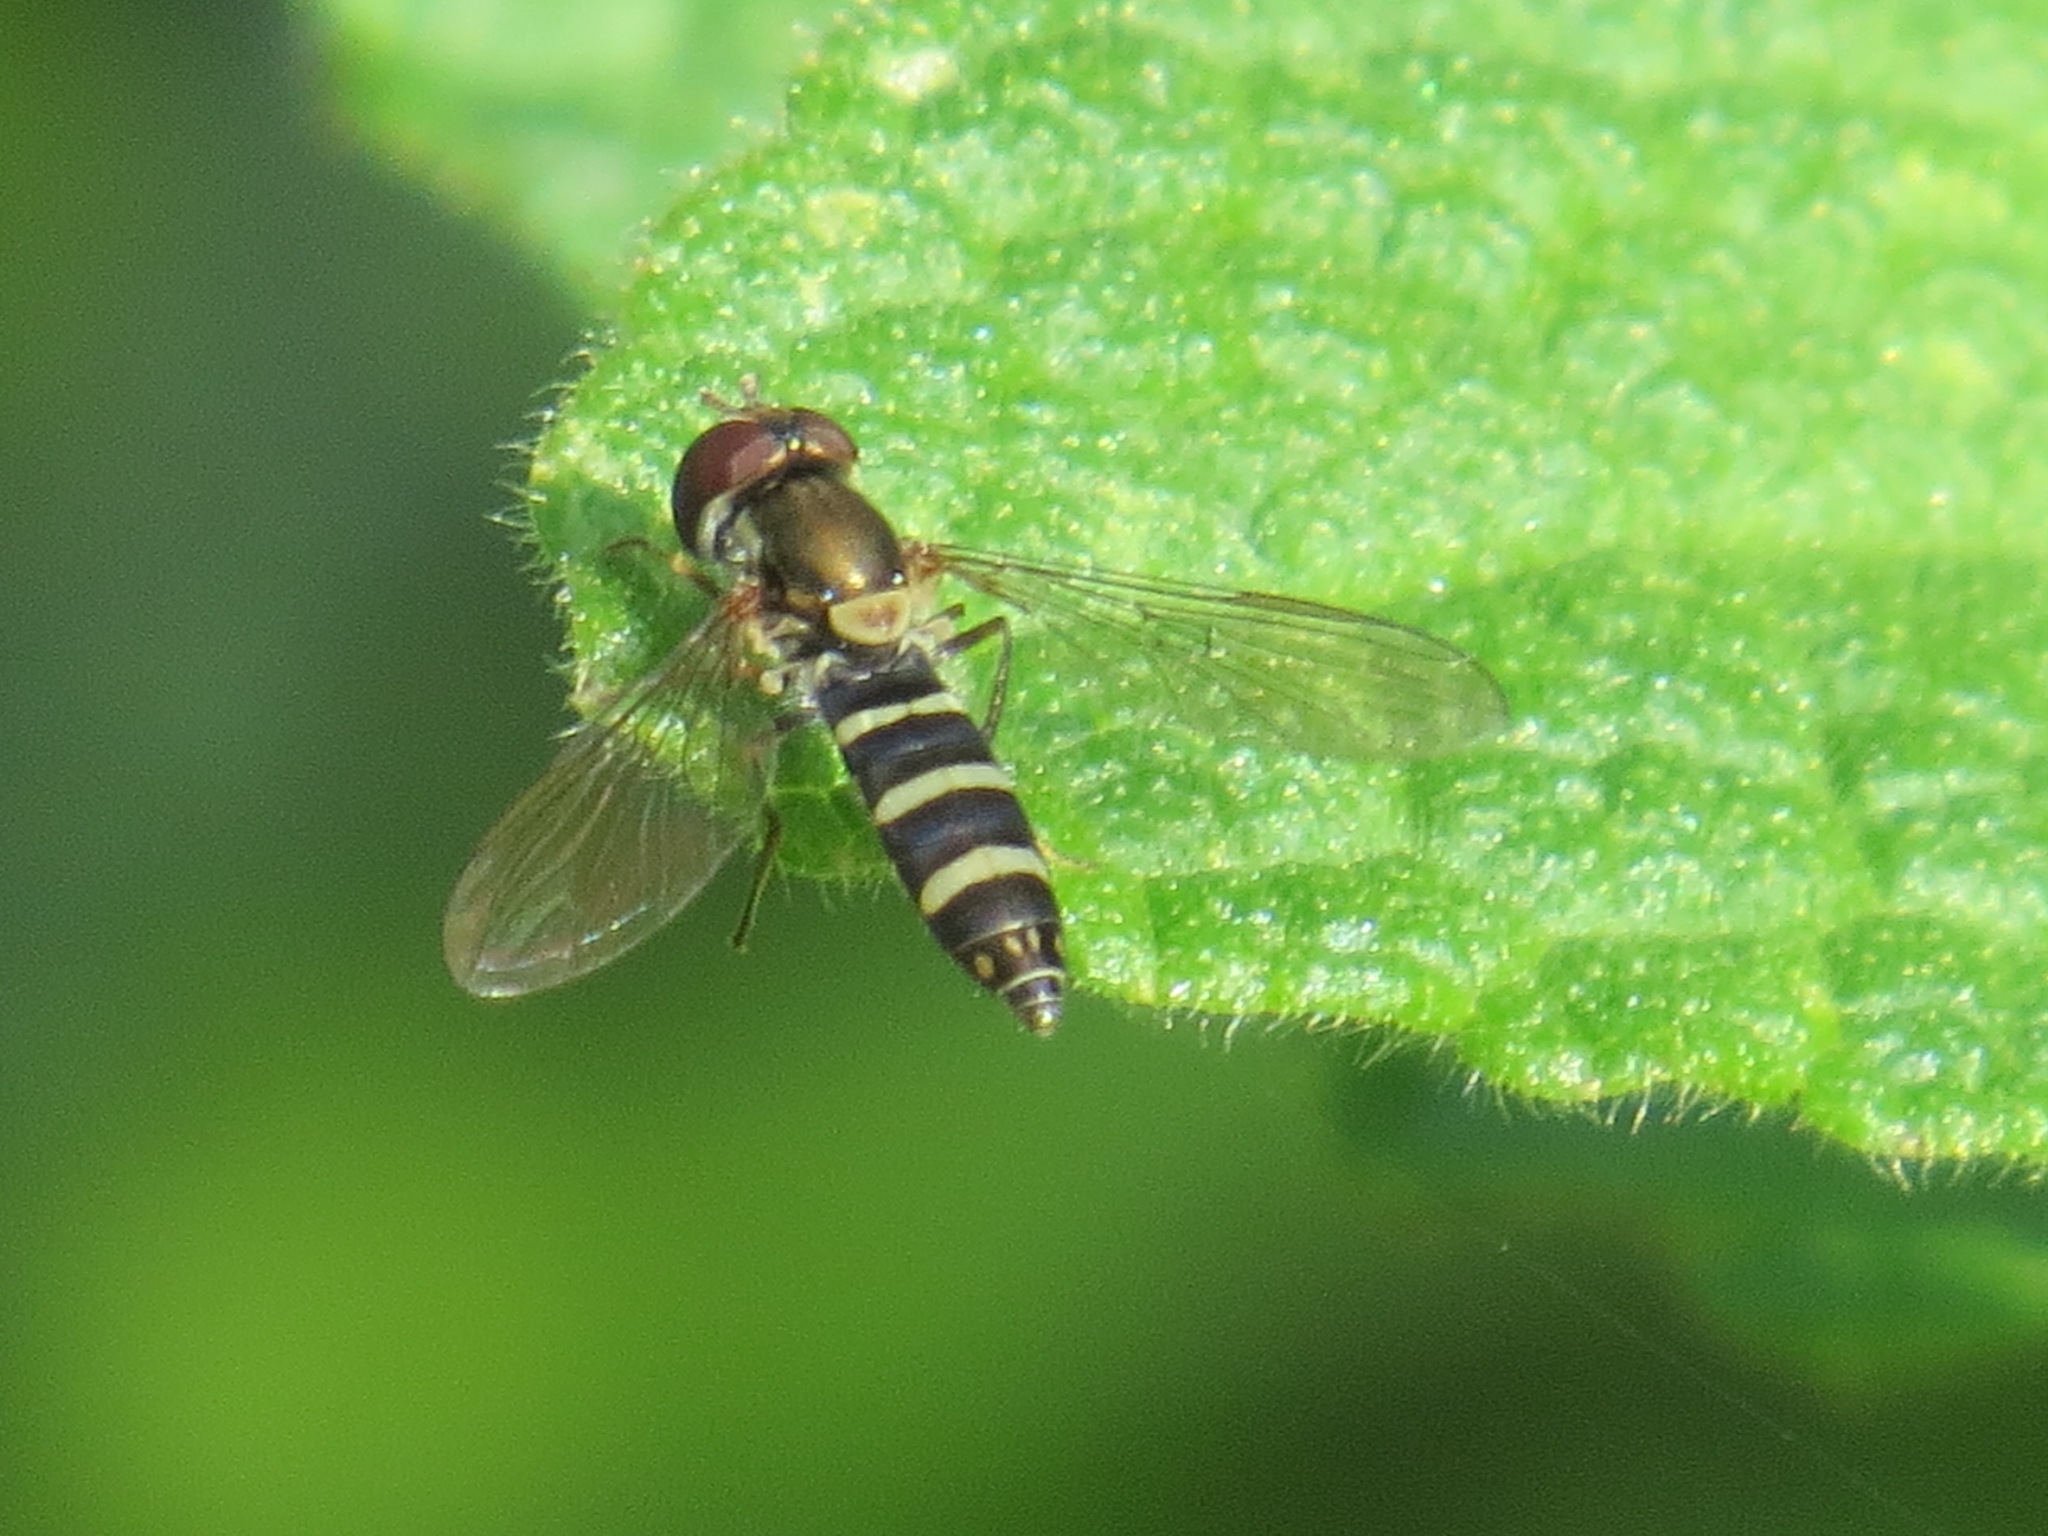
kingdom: Animalia
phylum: Arthropoda
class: Insecta
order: Diptera
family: Syrphidae
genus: Fazia
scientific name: Fazia micrura
